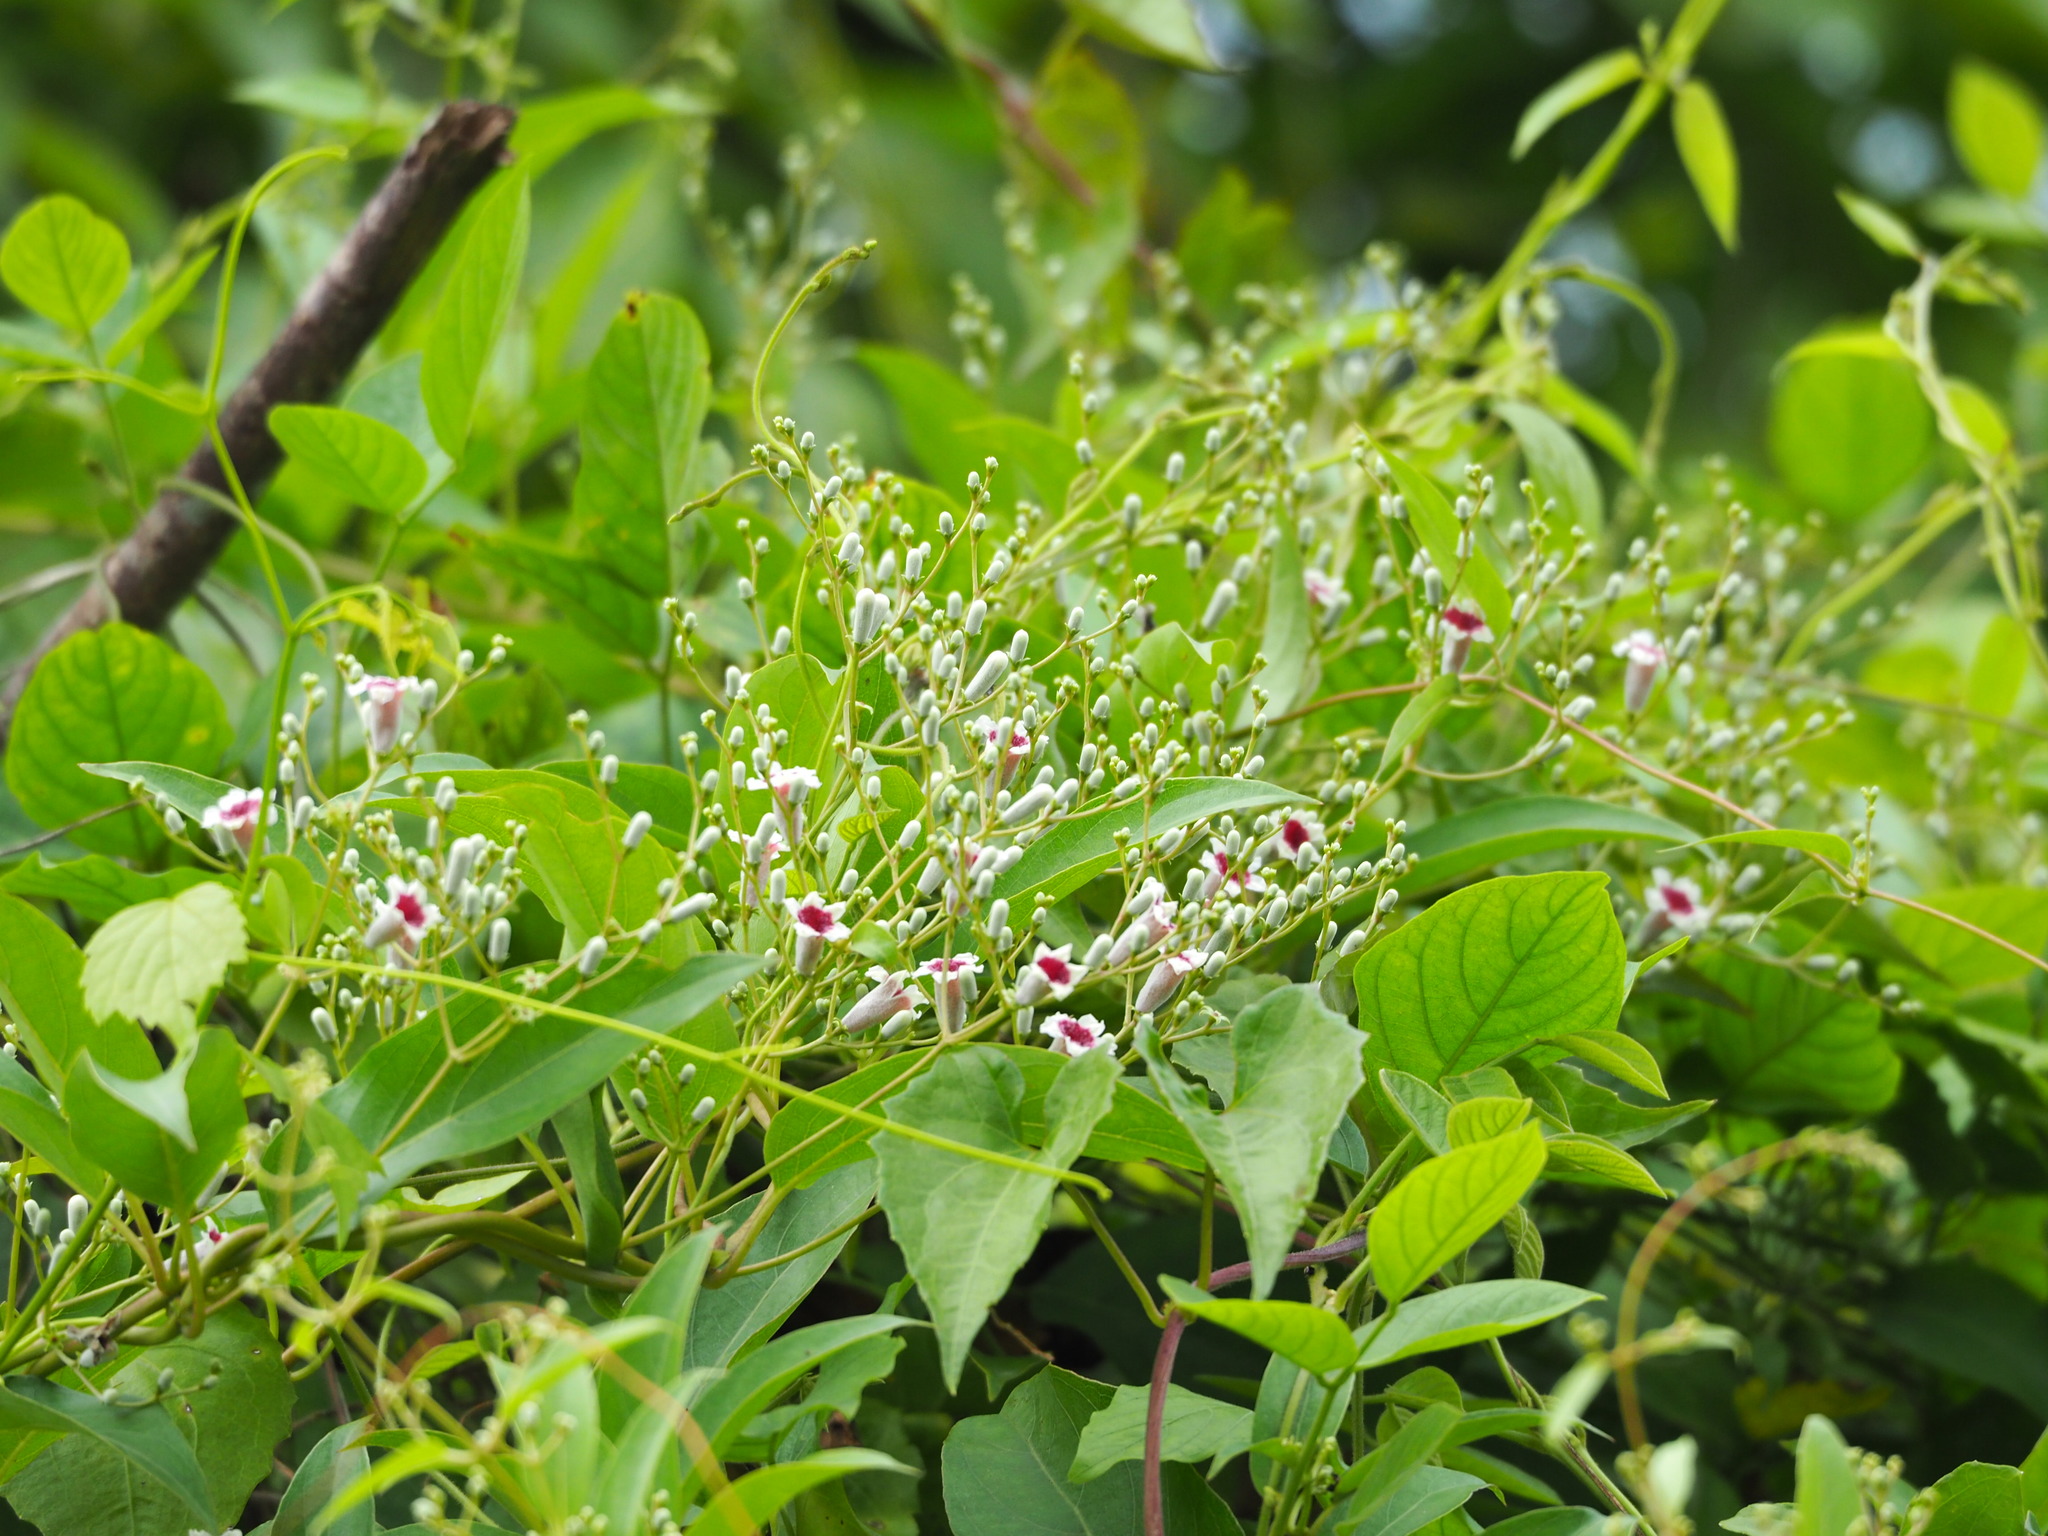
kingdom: Plantae
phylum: Tracheophyta
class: Magnoliopsida
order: Gentianales
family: Rubiaceae
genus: Paederia
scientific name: Paederia foetida
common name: Stinkvine
